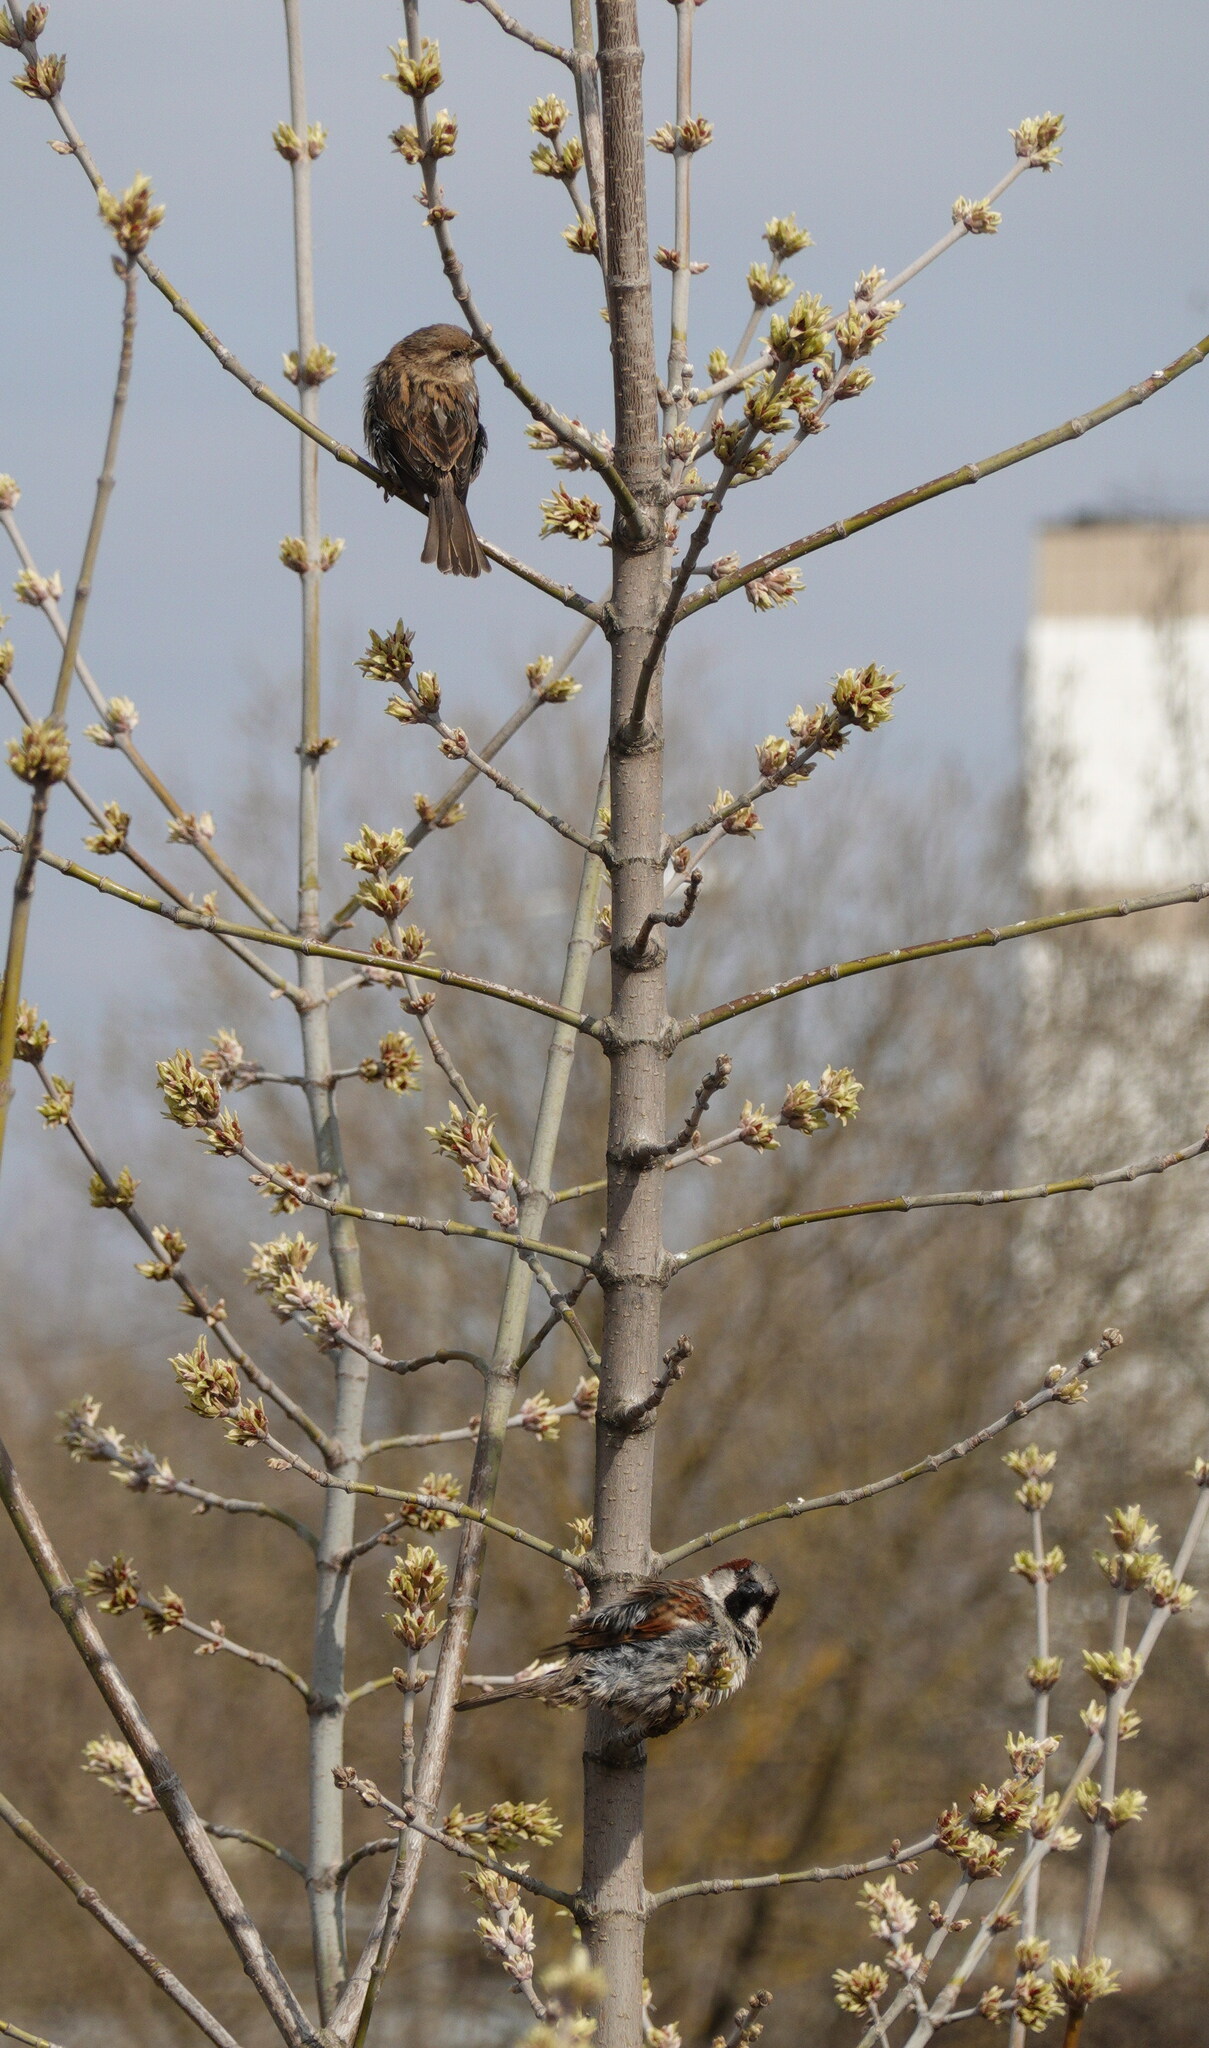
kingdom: Animalia
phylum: Chordata
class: Aves
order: Passeriformes
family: Passeridae
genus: Passer
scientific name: Passer domesticus
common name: House sparrow
